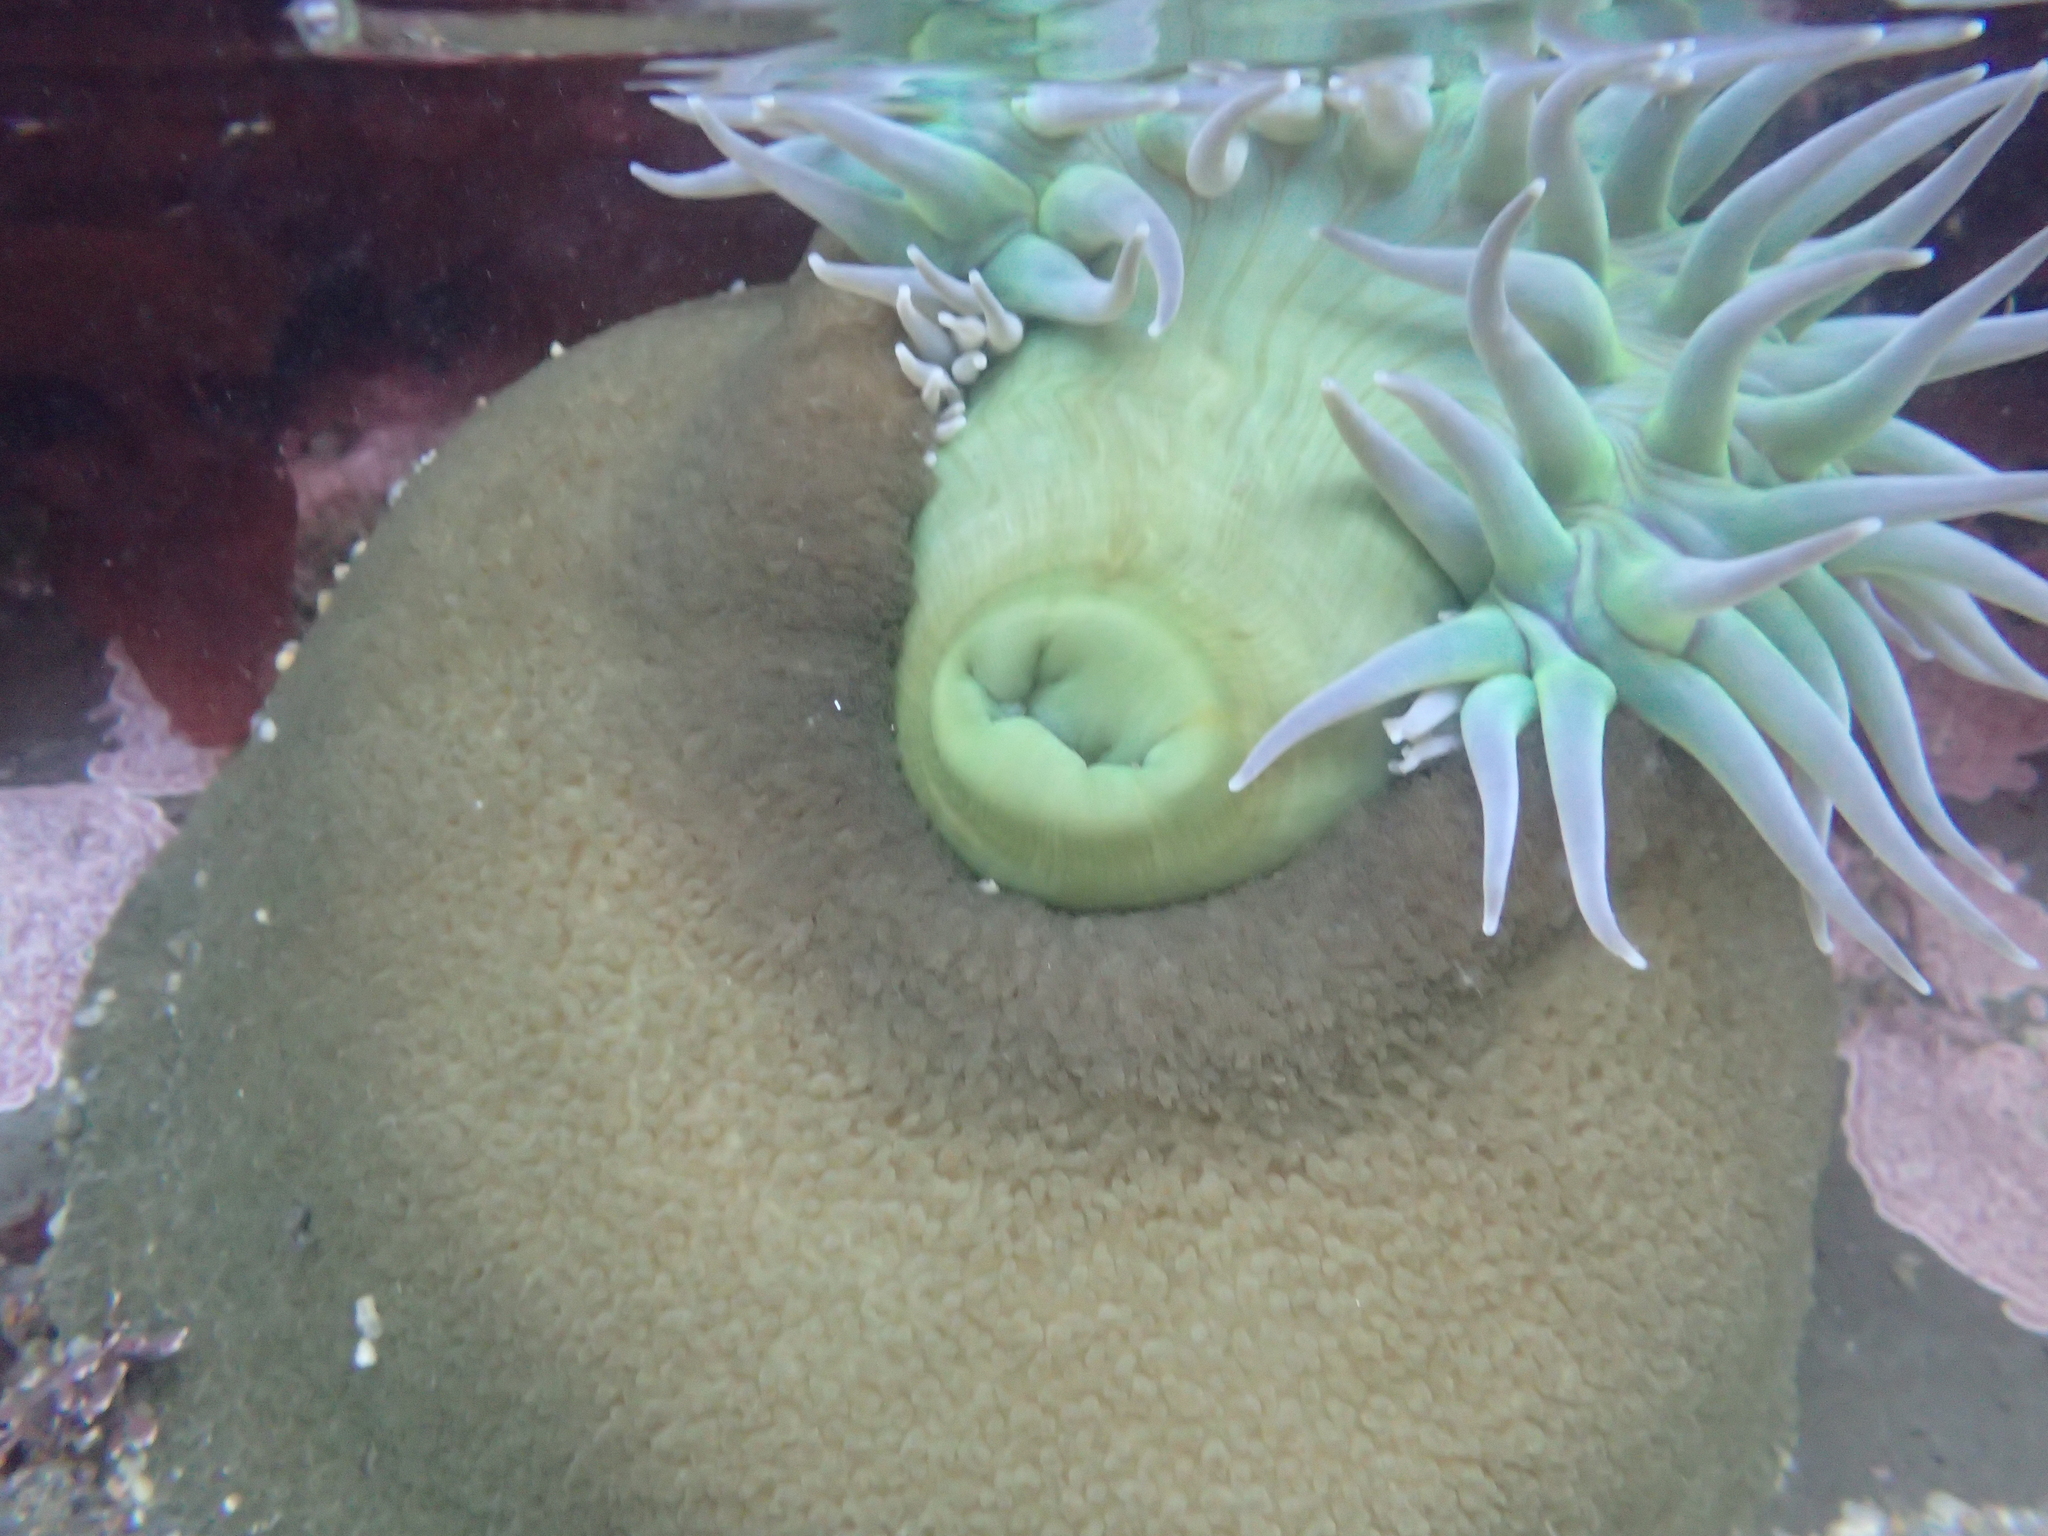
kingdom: Animalia
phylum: Cnidaria
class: Anthozoa
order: Actiniaria
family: Actiniidae
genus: Anthopleura
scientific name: Anthopleura xanthogrammica
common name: Giant green anemone
